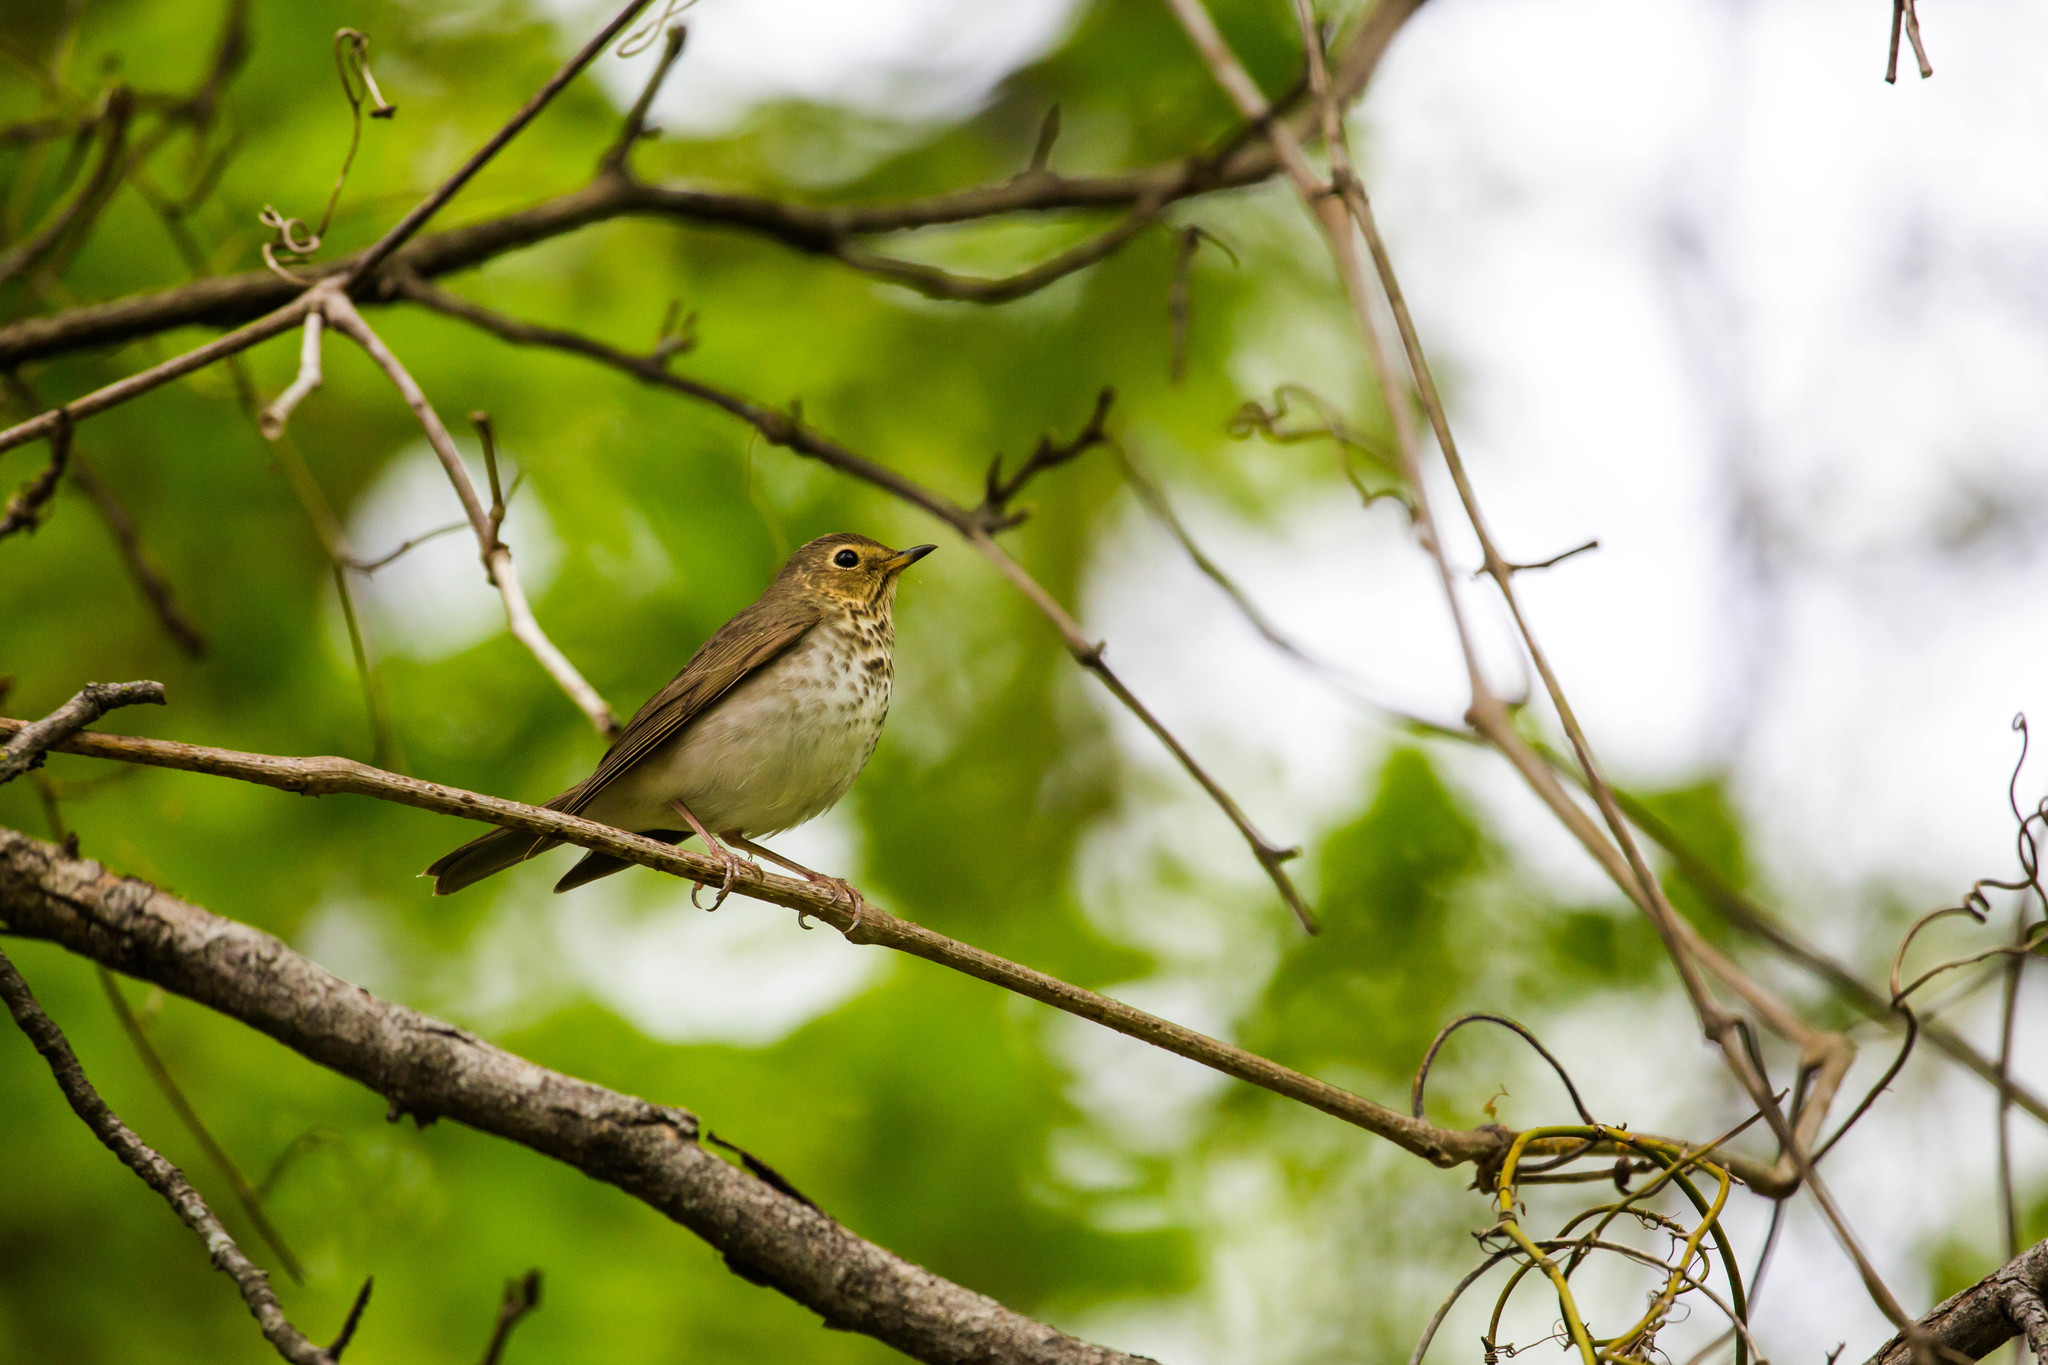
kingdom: Animalia
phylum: Chordata
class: Aves
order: Passeriformes
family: Turdidae
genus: Catharus
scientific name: Catharus ustulatus
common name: Swainson's thrush
